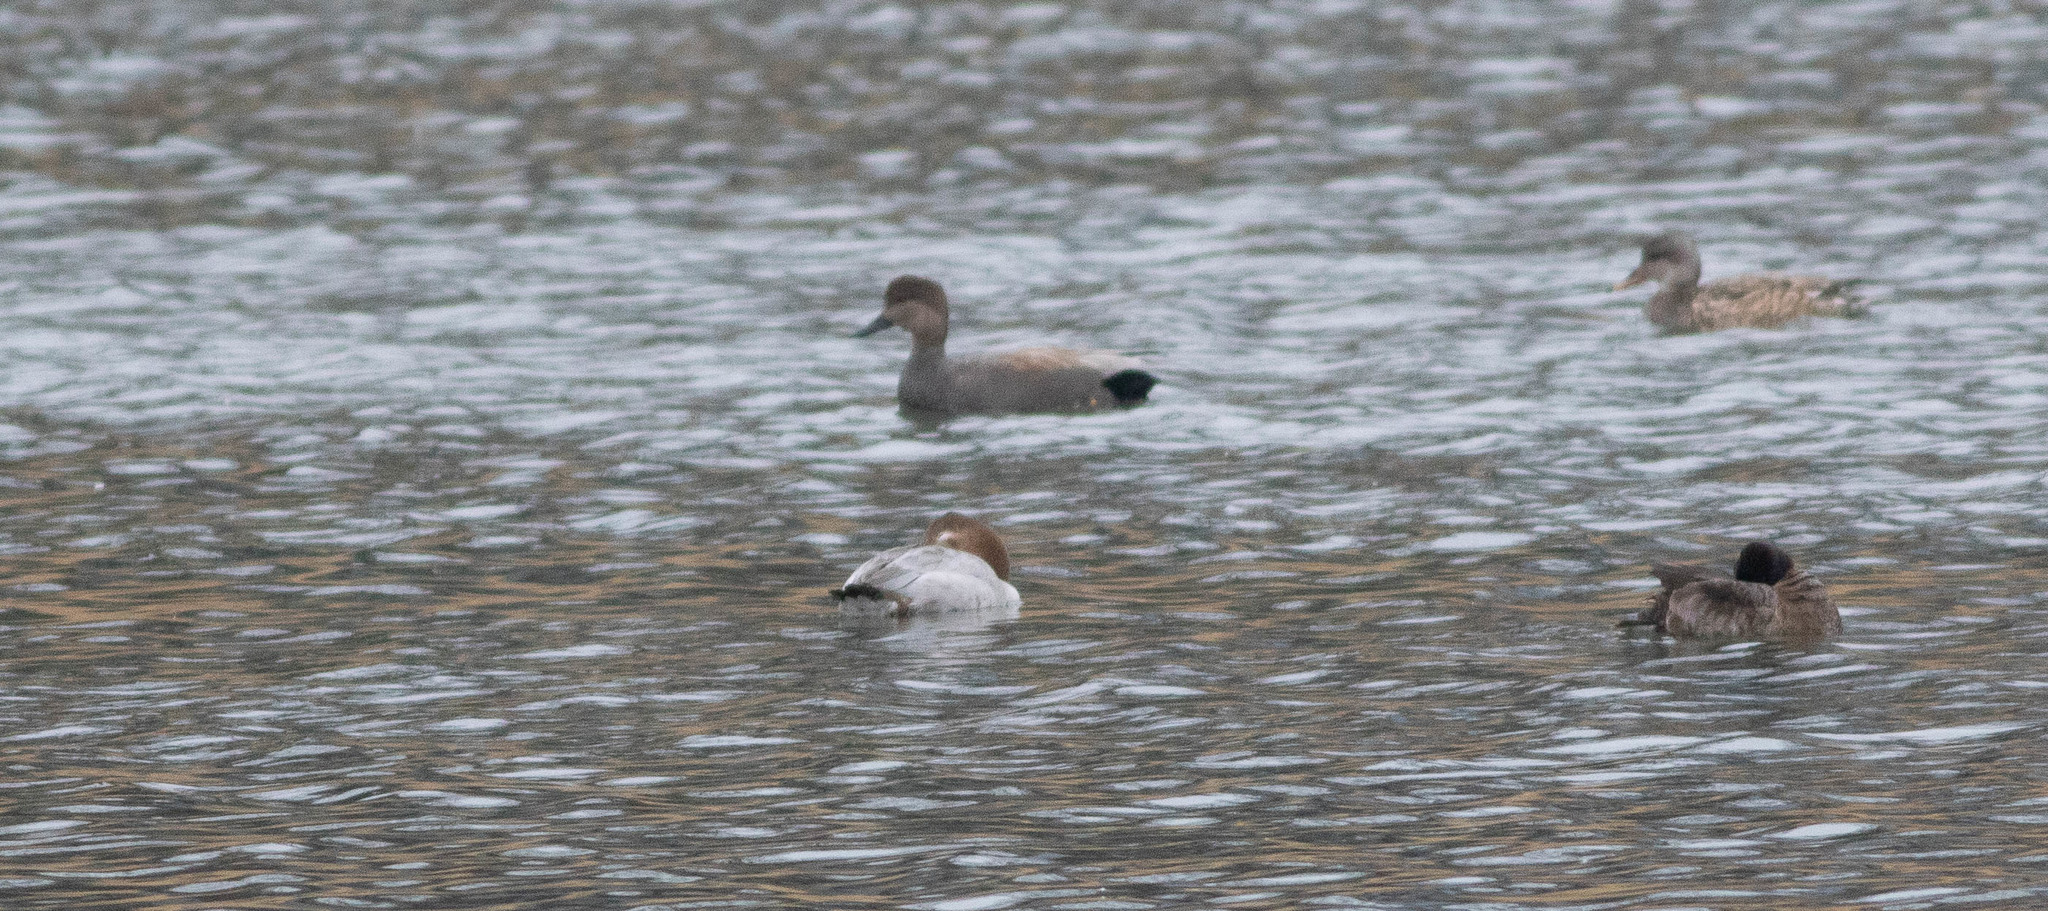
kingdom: Animalia
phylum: Chordata
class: Aves
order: Anseriformes
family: Anatidae
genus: Mareca
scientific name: Mareca strepera
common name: Gadwall
